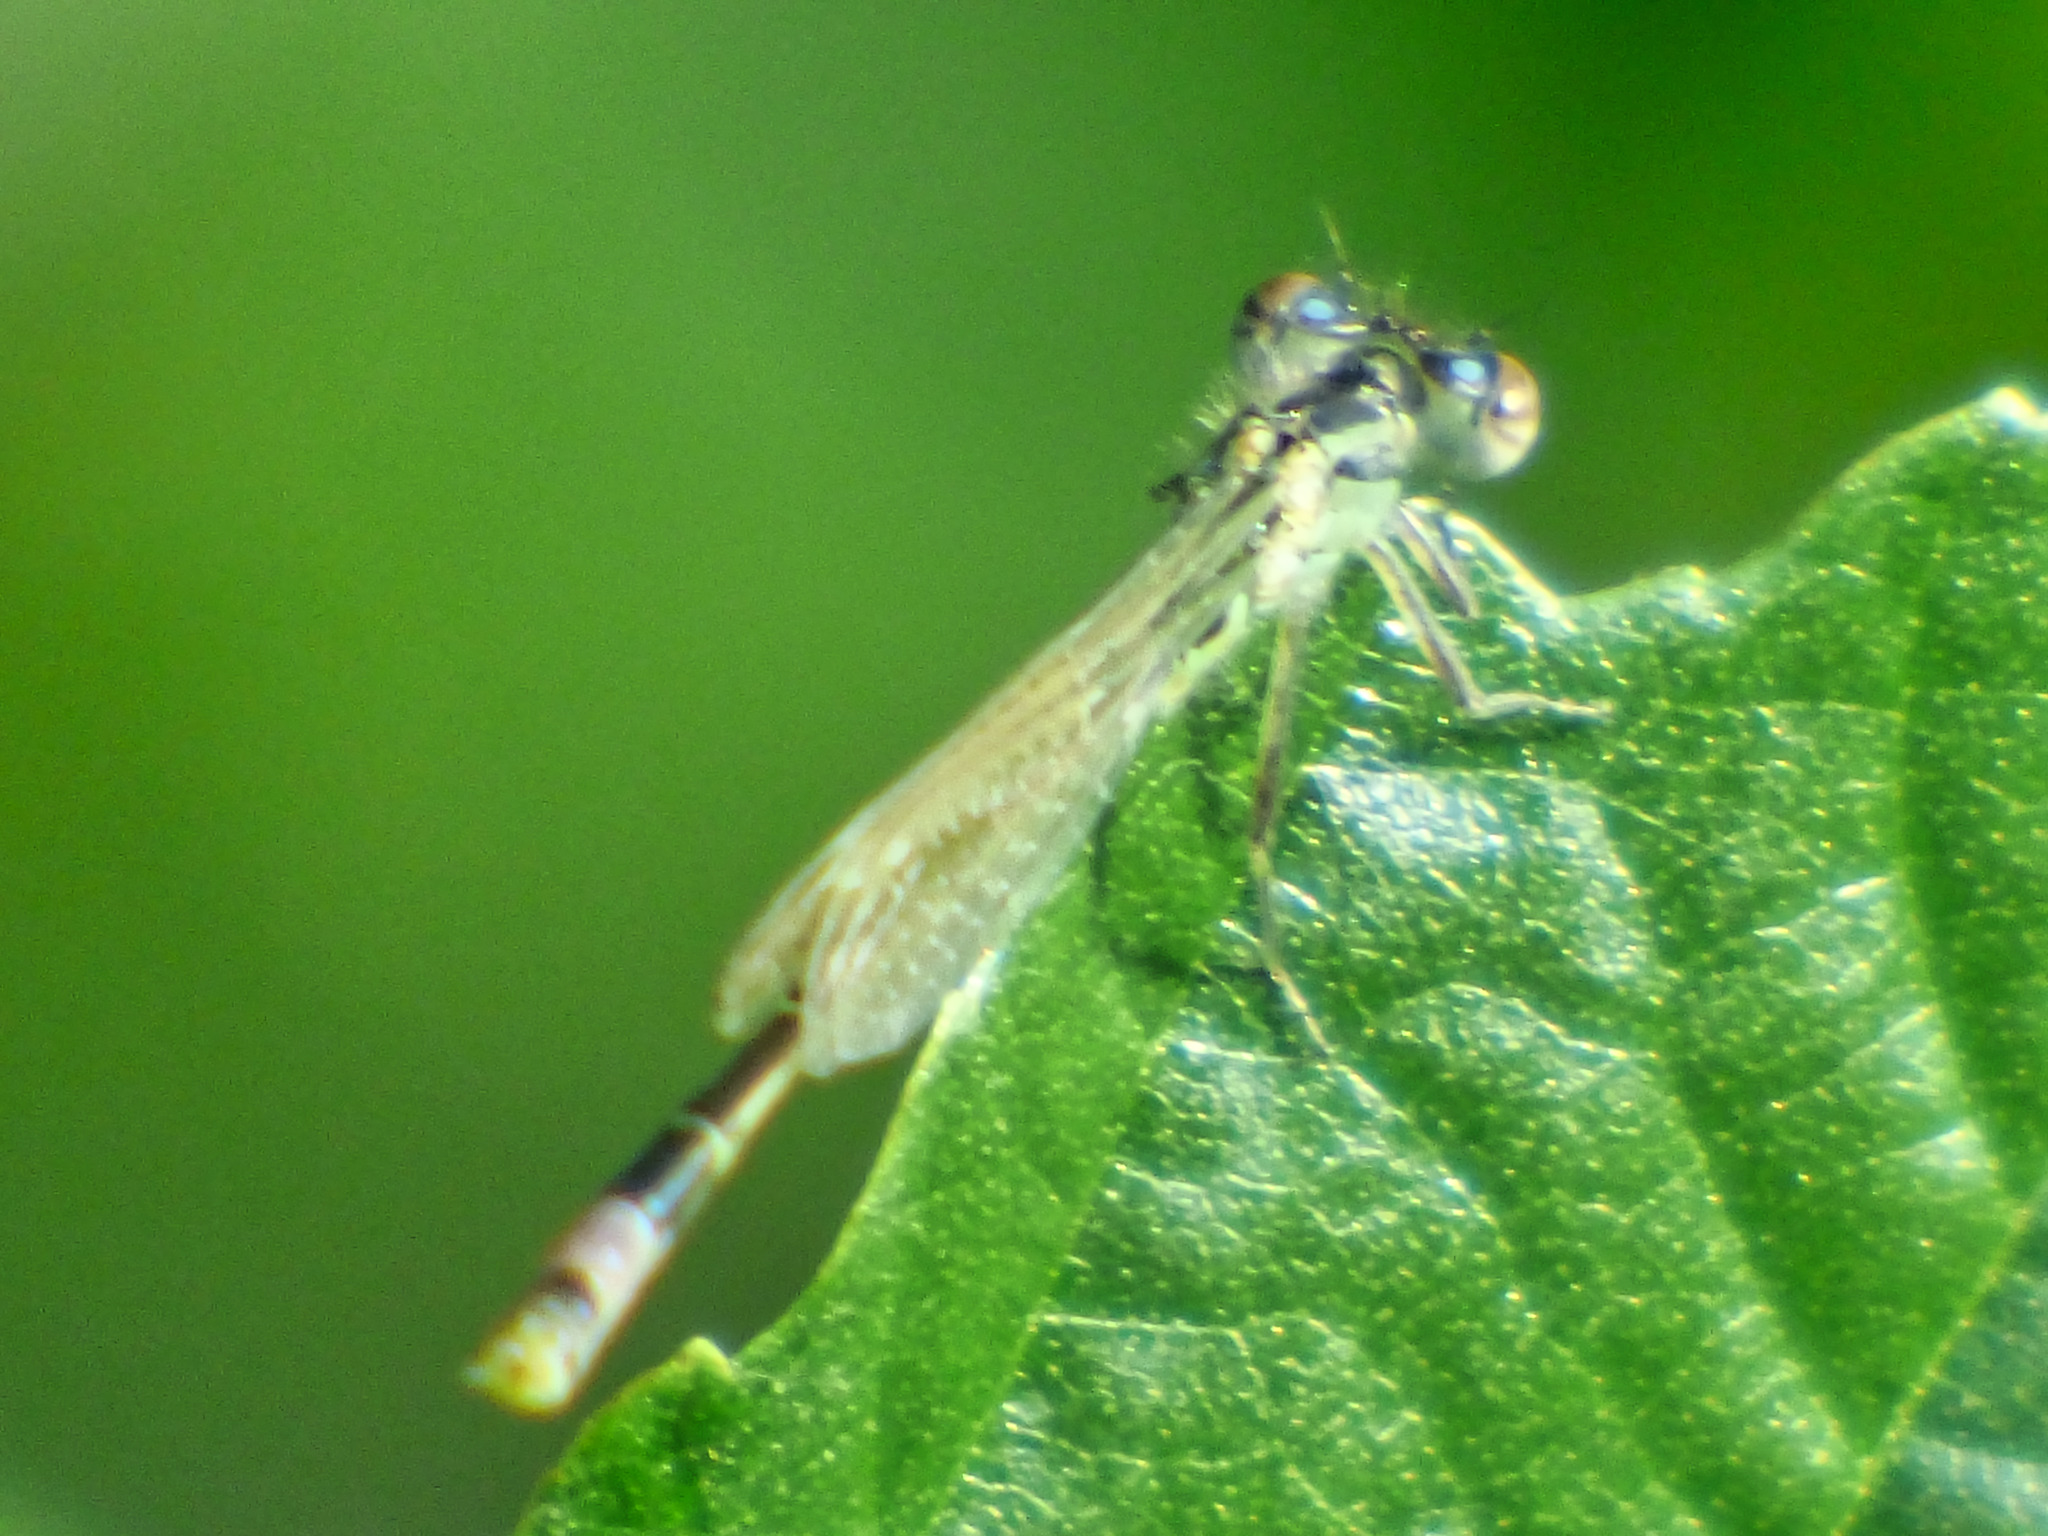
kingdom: Animalia
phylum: Arthropoda
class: Insecta
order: Odonata
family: Coenagrionidae
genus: Ischnura
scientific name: Ischnura elegans
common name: Blue-tailed damselfly
